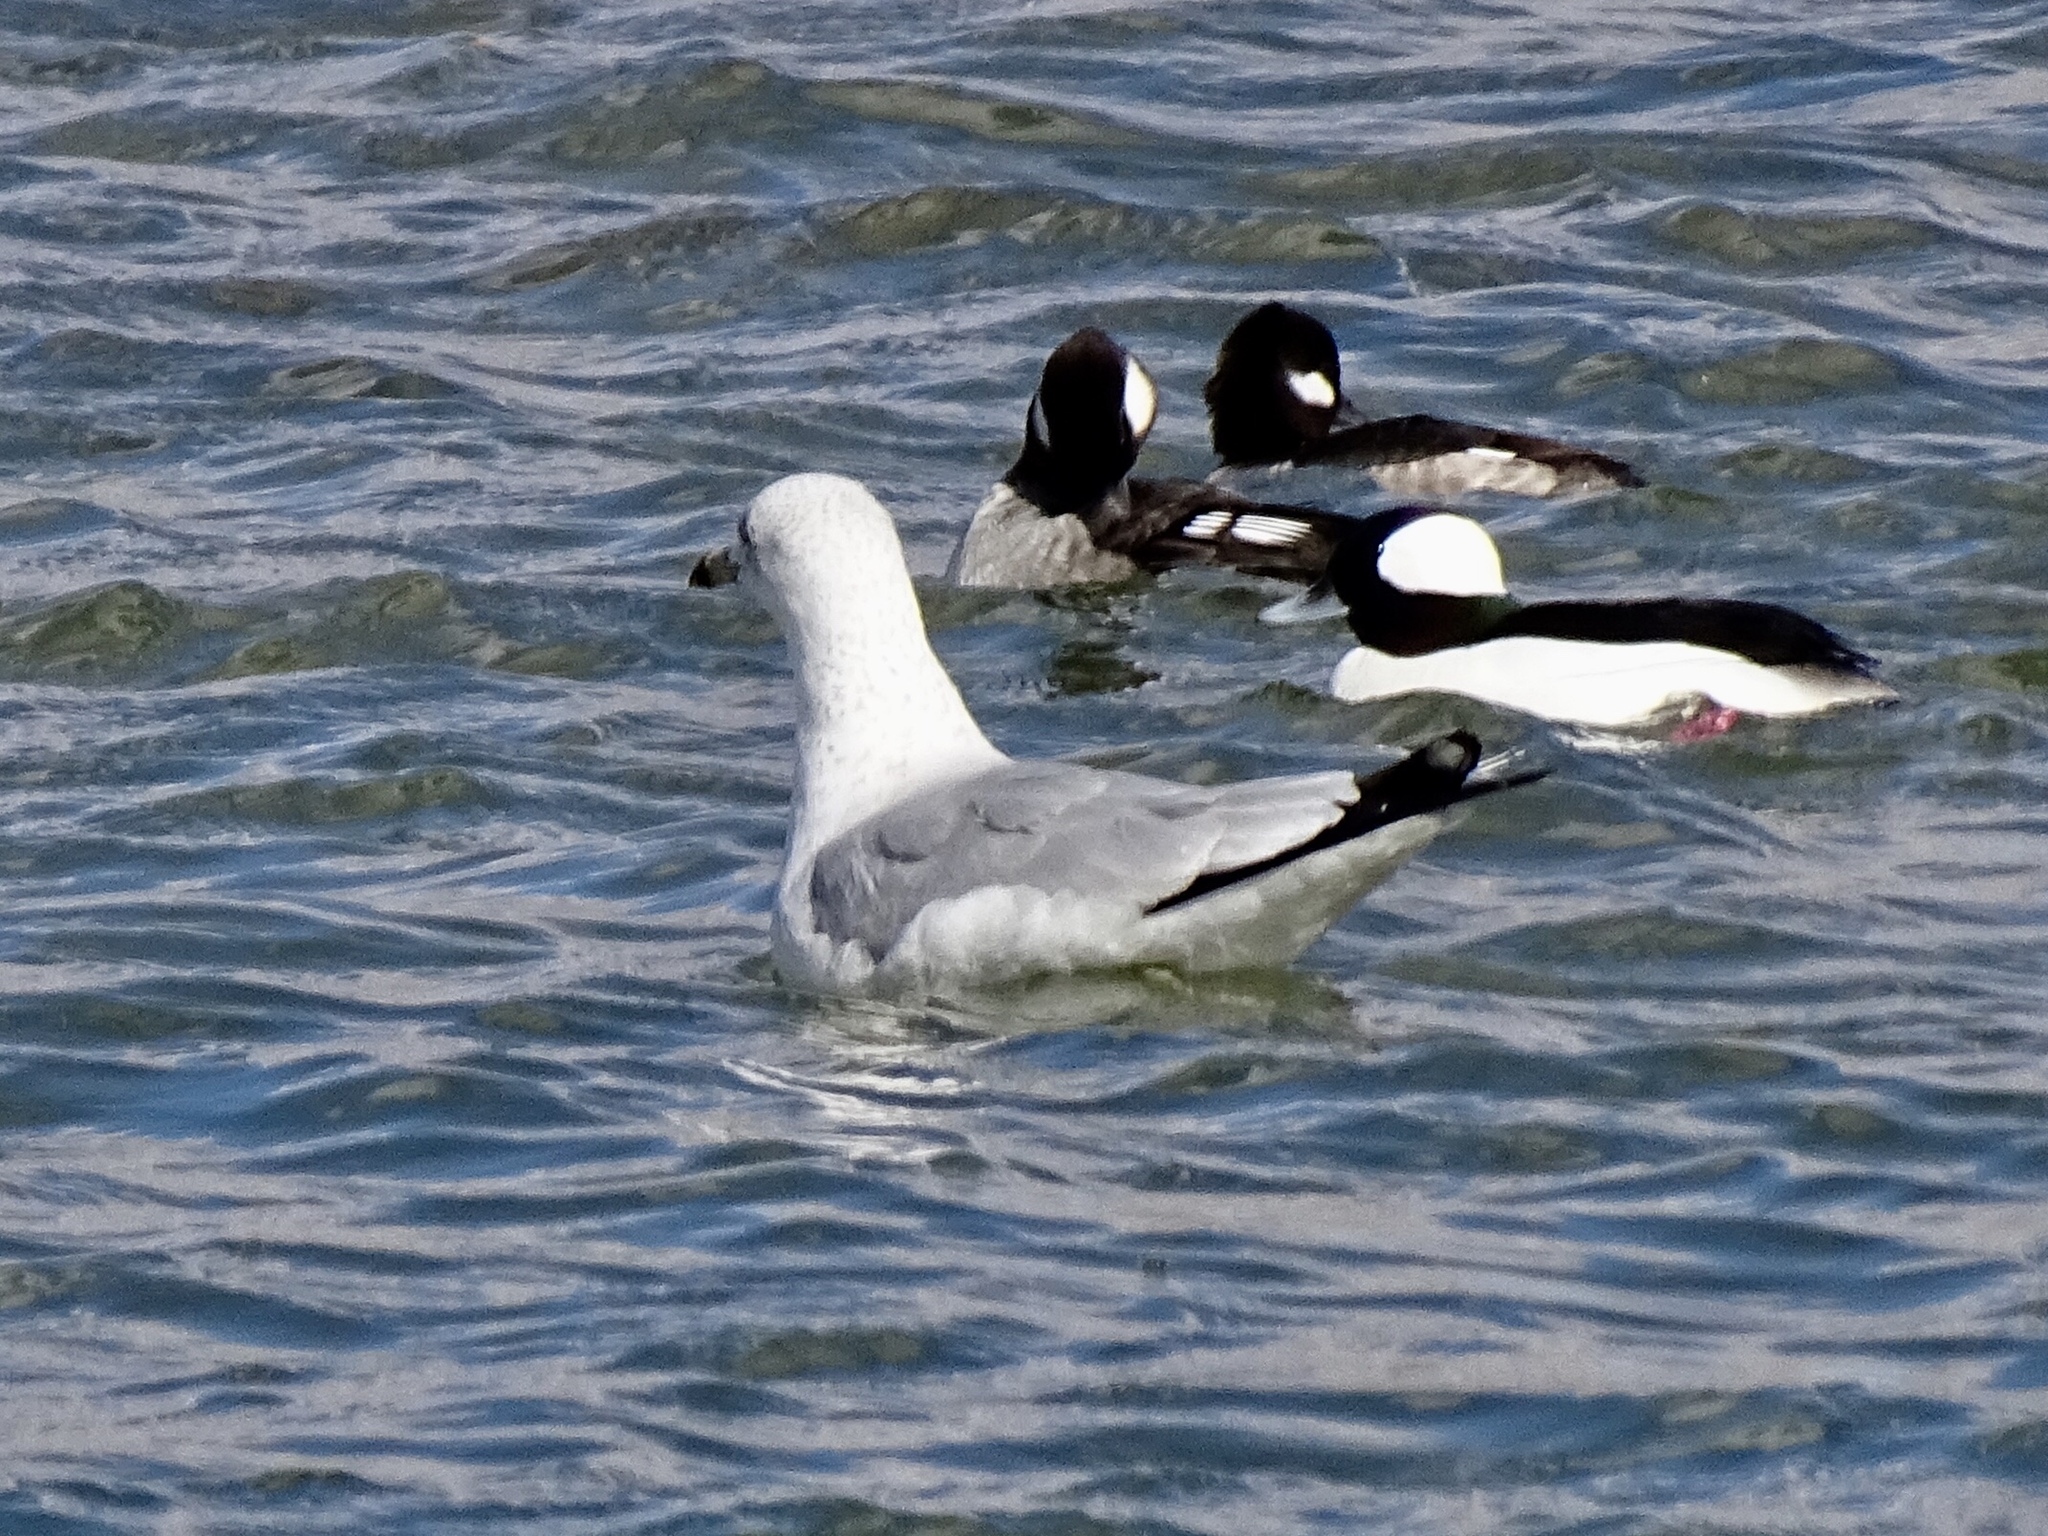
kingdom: Animalia
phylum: Chordata
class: Aves
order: Charadriiformes
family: Laridae
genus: Larus
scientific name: Larus delawarensis
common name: Ring-billed gull
